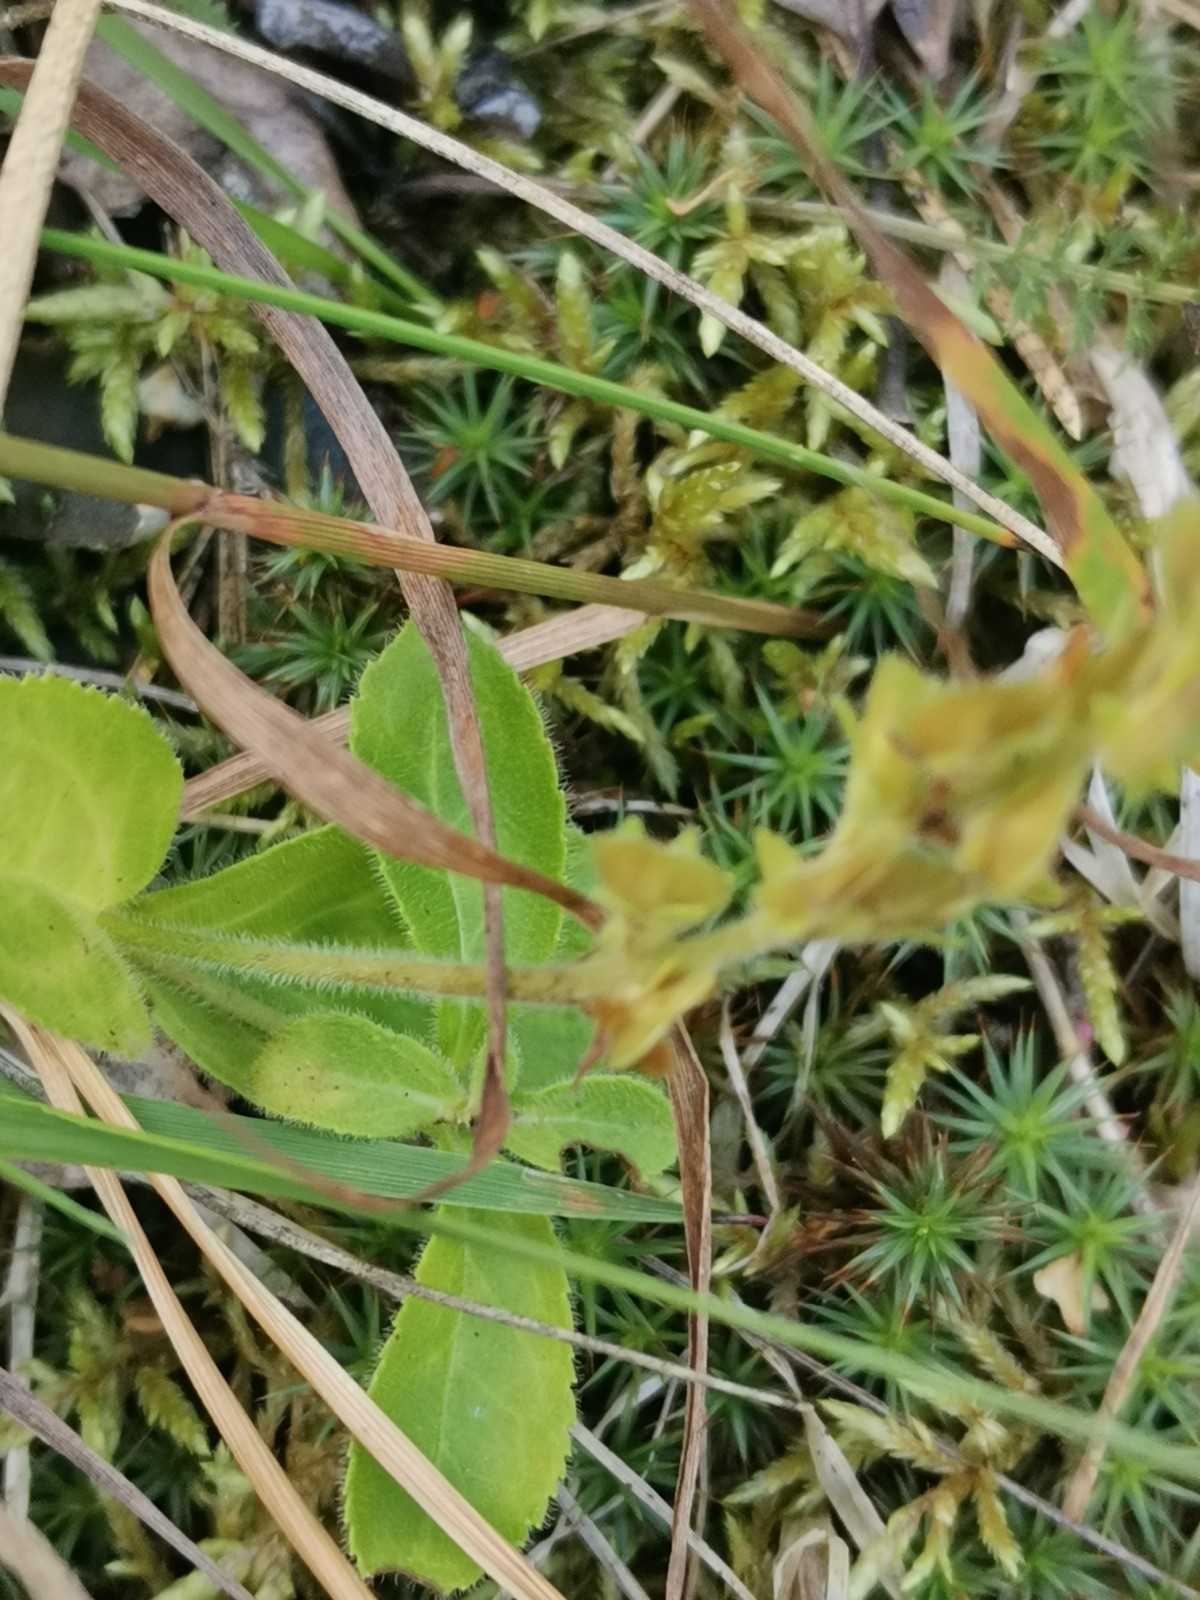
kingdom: Plantae
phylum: Tracheophyta
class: Magnoliopsida
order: Lamiales
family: Plantaginaceae
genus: Veronica
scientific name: Veronica officinalis
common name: Common speedwell
